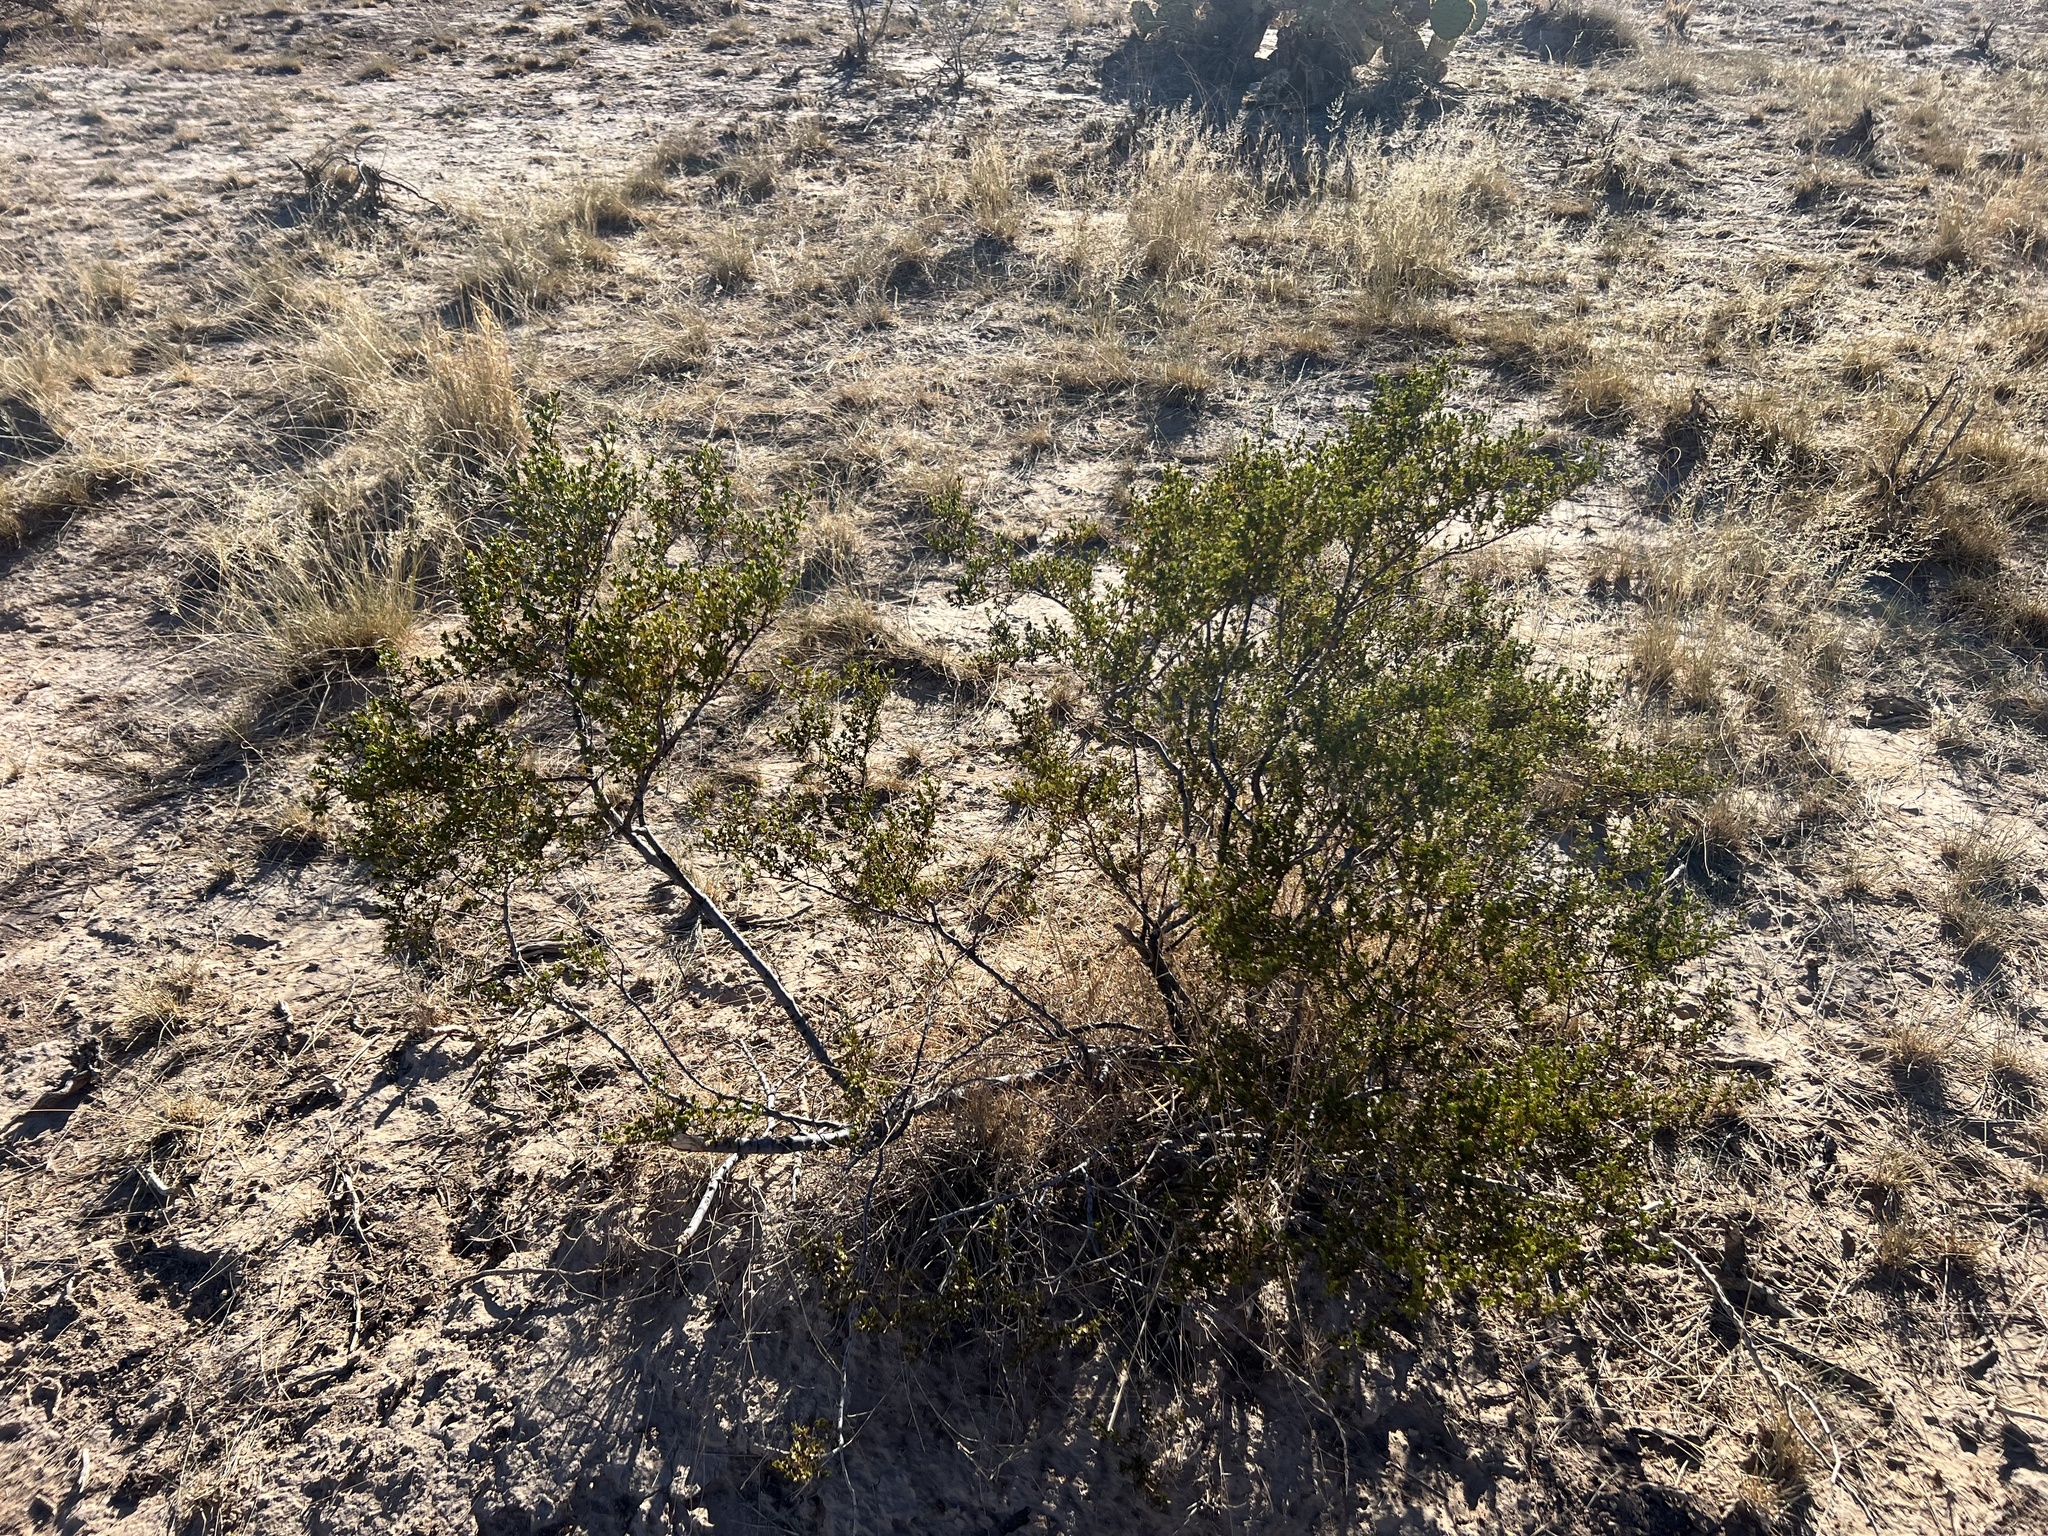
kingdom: Plantae
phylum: Tracheophyta
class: Magnoliopsida
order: Zygophyllales
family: Zygophyllaceae
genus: Larrea
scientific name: Larrea tridentata
